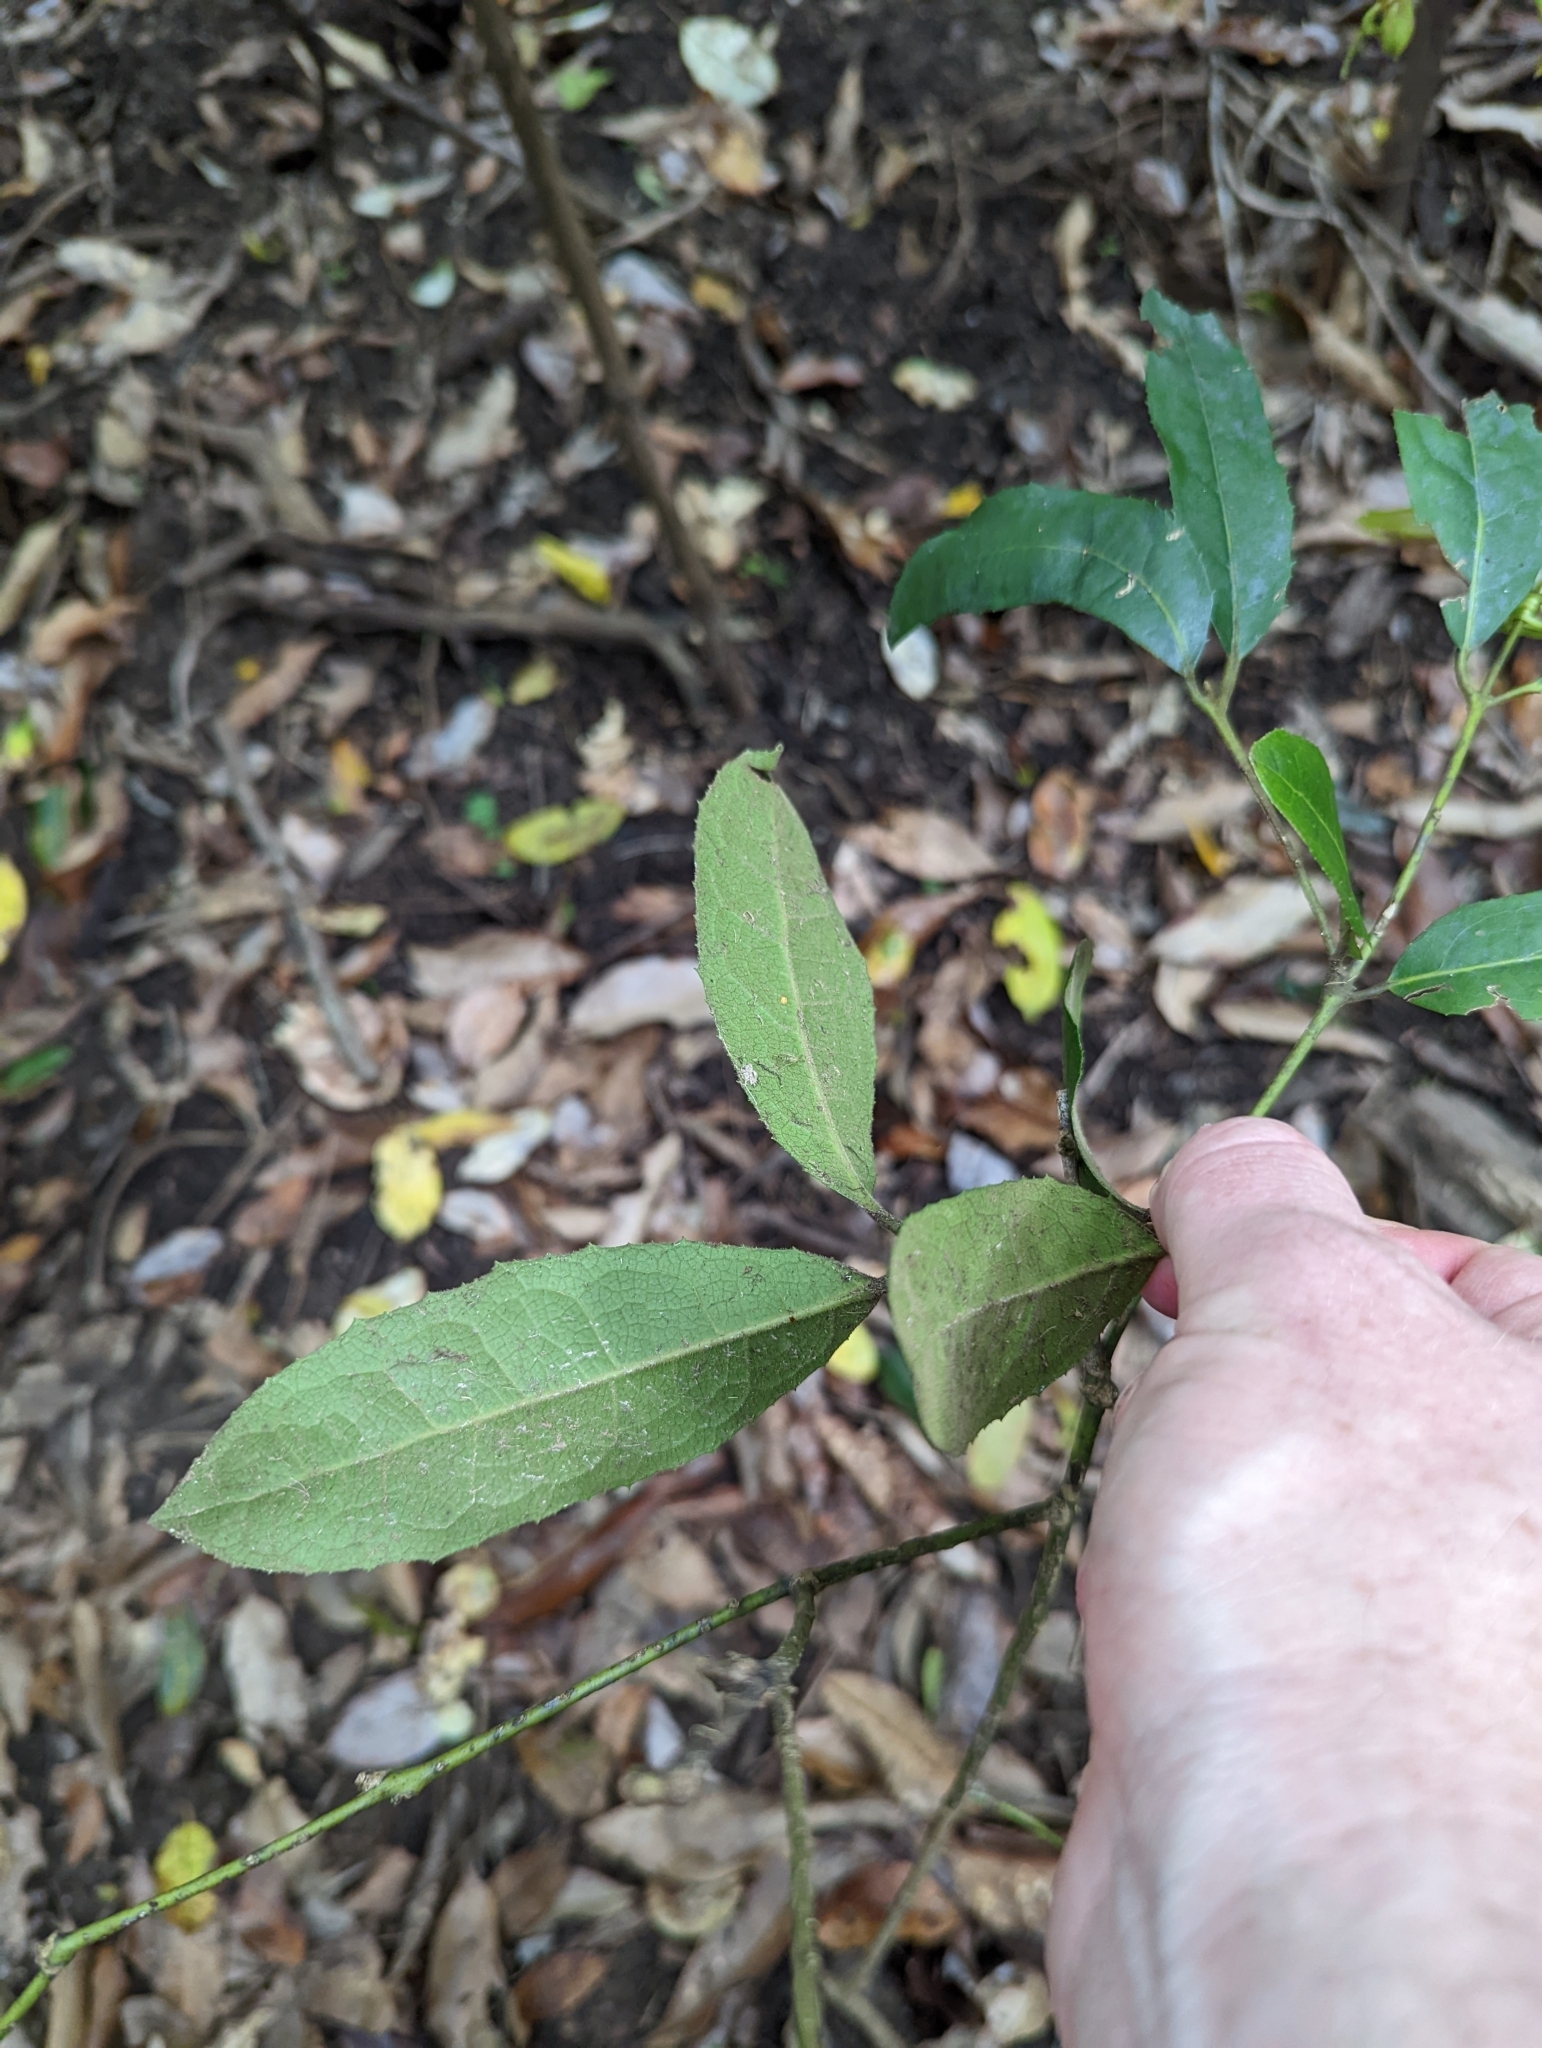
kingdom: Plantae
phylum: Tracheophyta
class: Magnoliopsida
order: Laurales
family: Monimiaceae
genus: Wilkiea
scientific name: Wilkiea hugeliana
